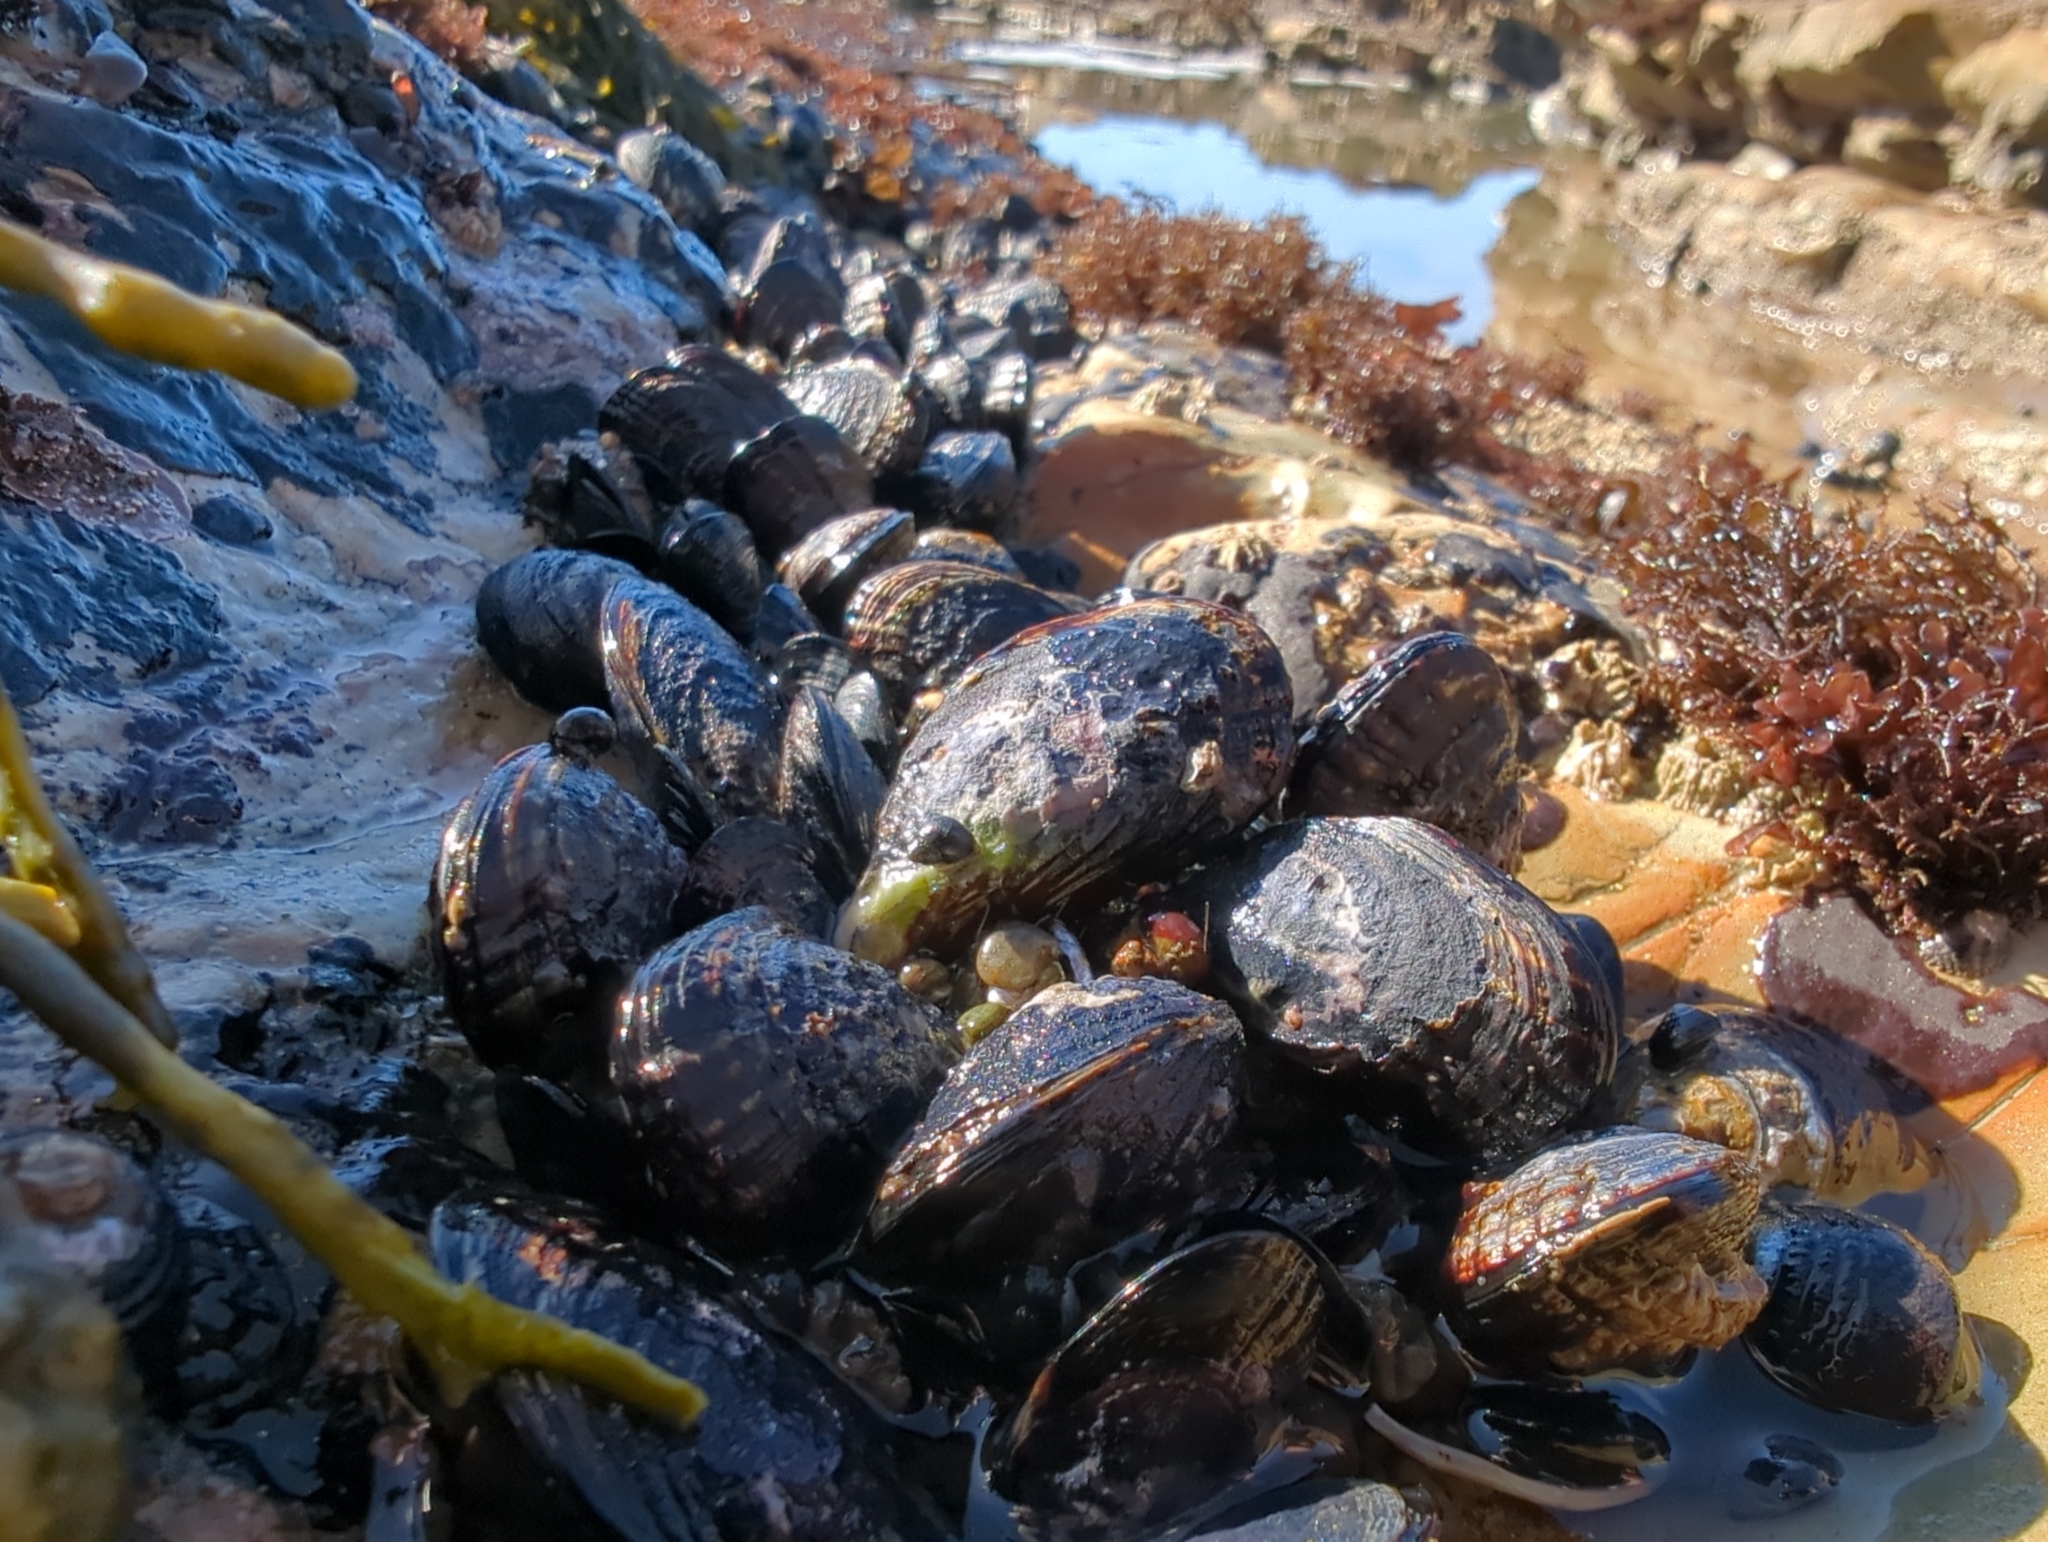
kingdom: Animalia
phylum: Mollusca
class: Bivalvia
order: Mytilida
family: Mytilidae
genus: Mytilus
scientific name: Mytilus californianus
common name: California mussel
